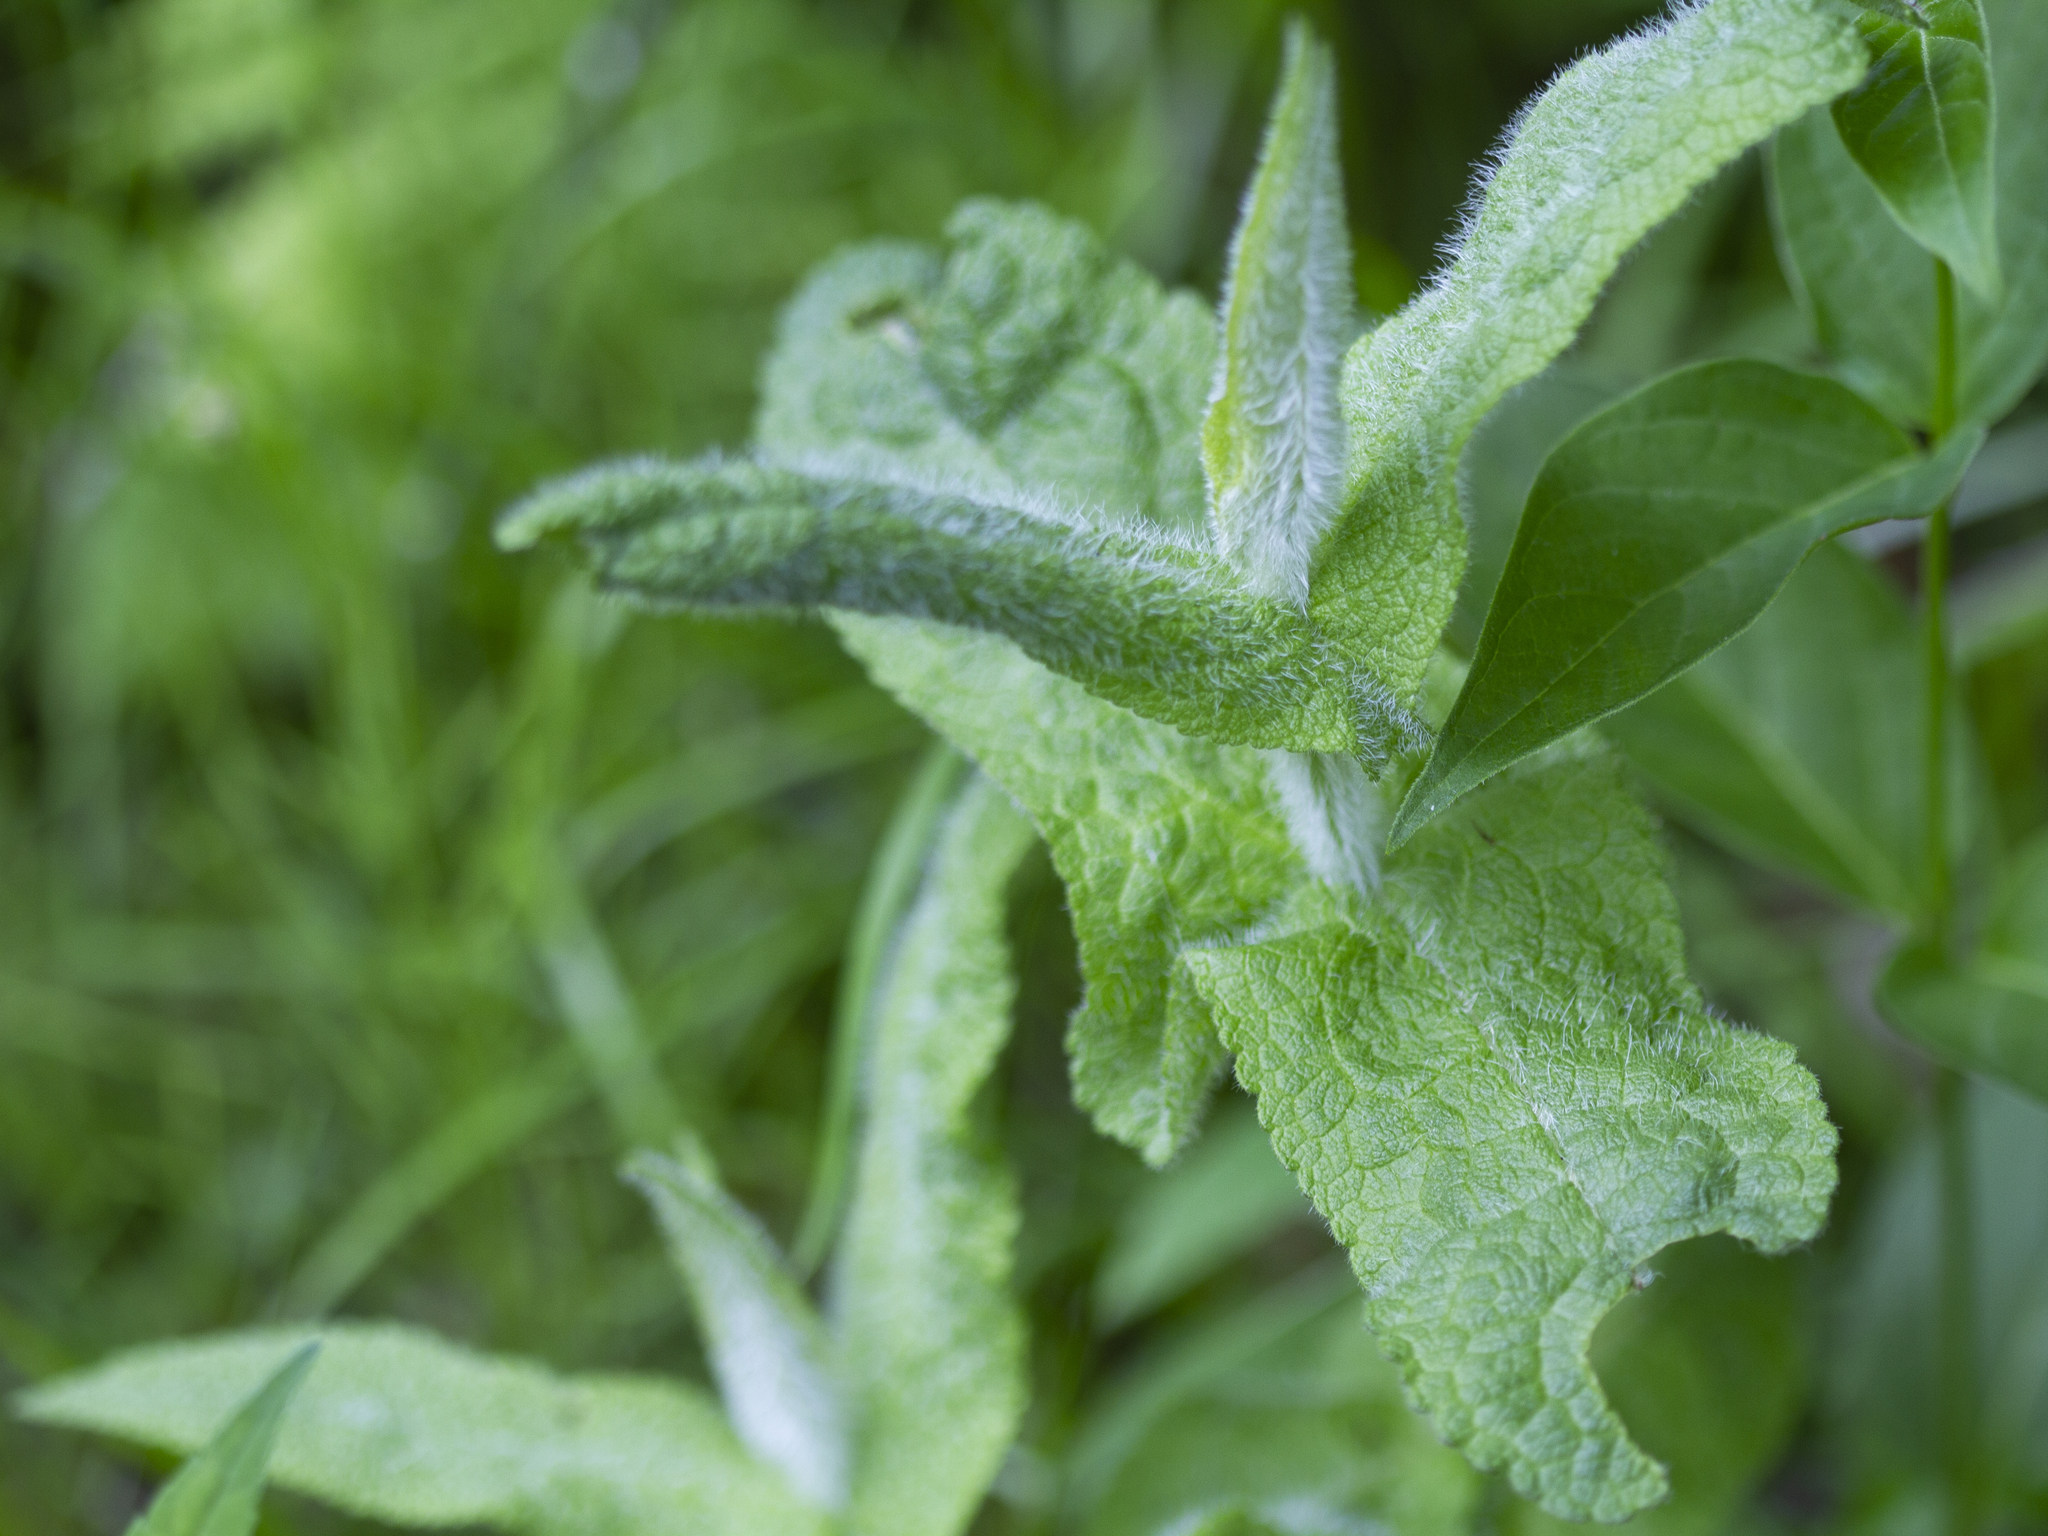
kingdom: Plantae
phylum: Tracheophyta
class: Magnoliopsida
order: Asterales
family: Asteraceae
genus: Eupatorium
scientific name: Eupatorium perfoliatum
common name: Boneset
